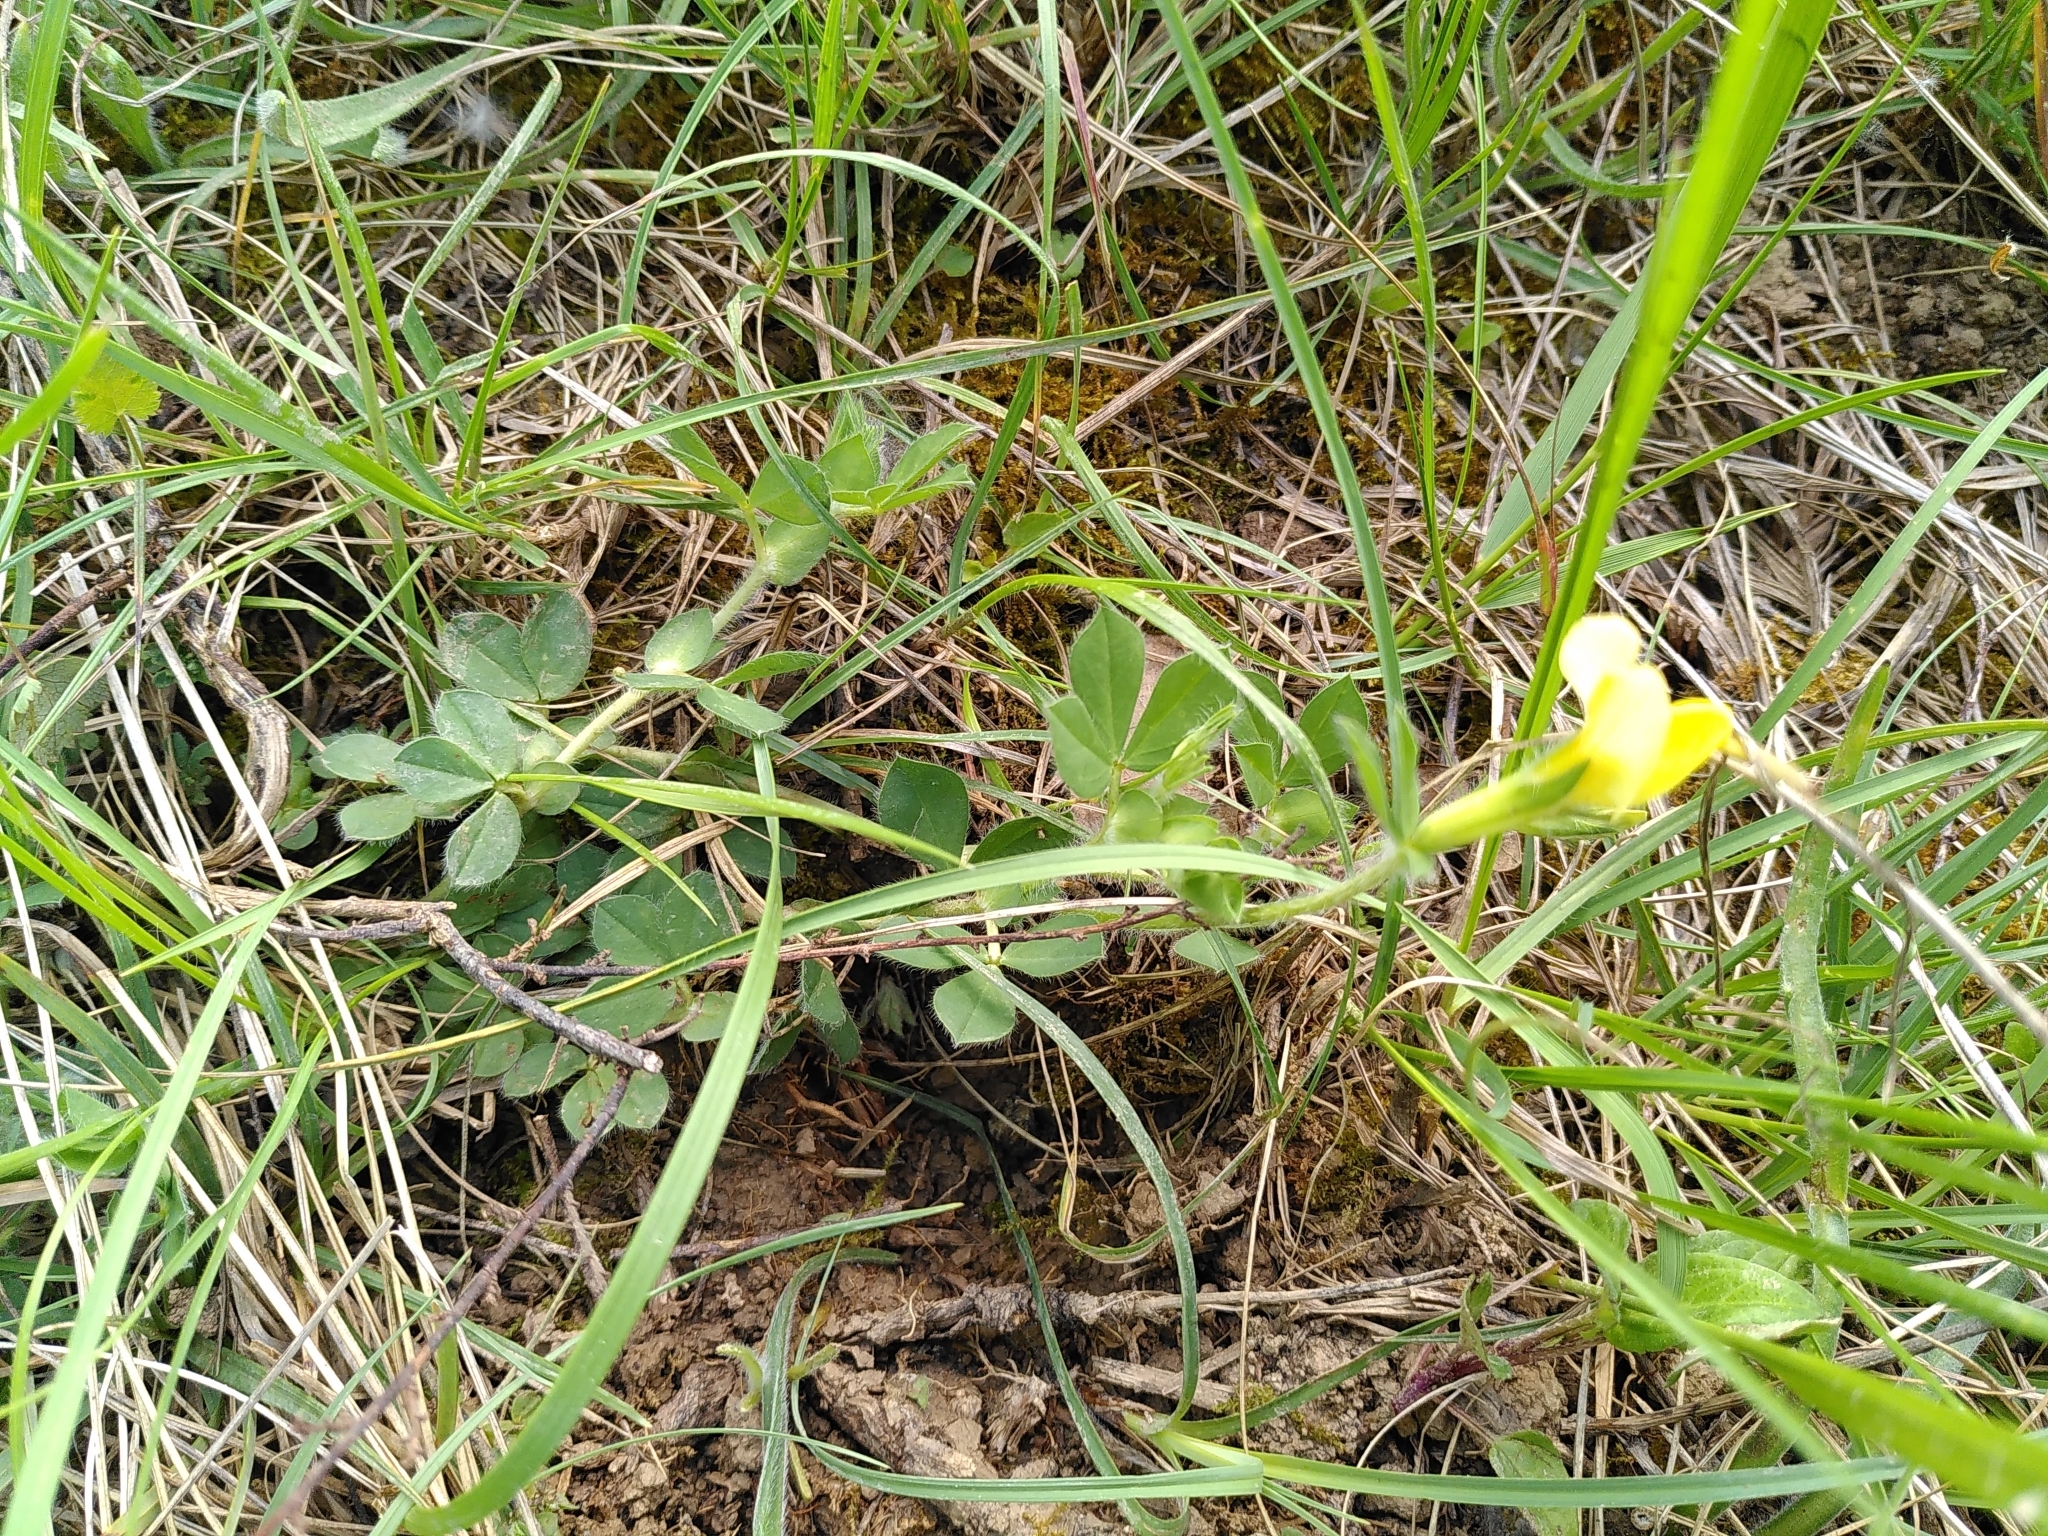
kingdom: Plantae
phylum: Tracheophyta
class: Magnoliopsida
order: Fabales
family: Fabaceae
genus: Lotus
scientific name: Lotus maritimus
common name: Dragon's-teeth
